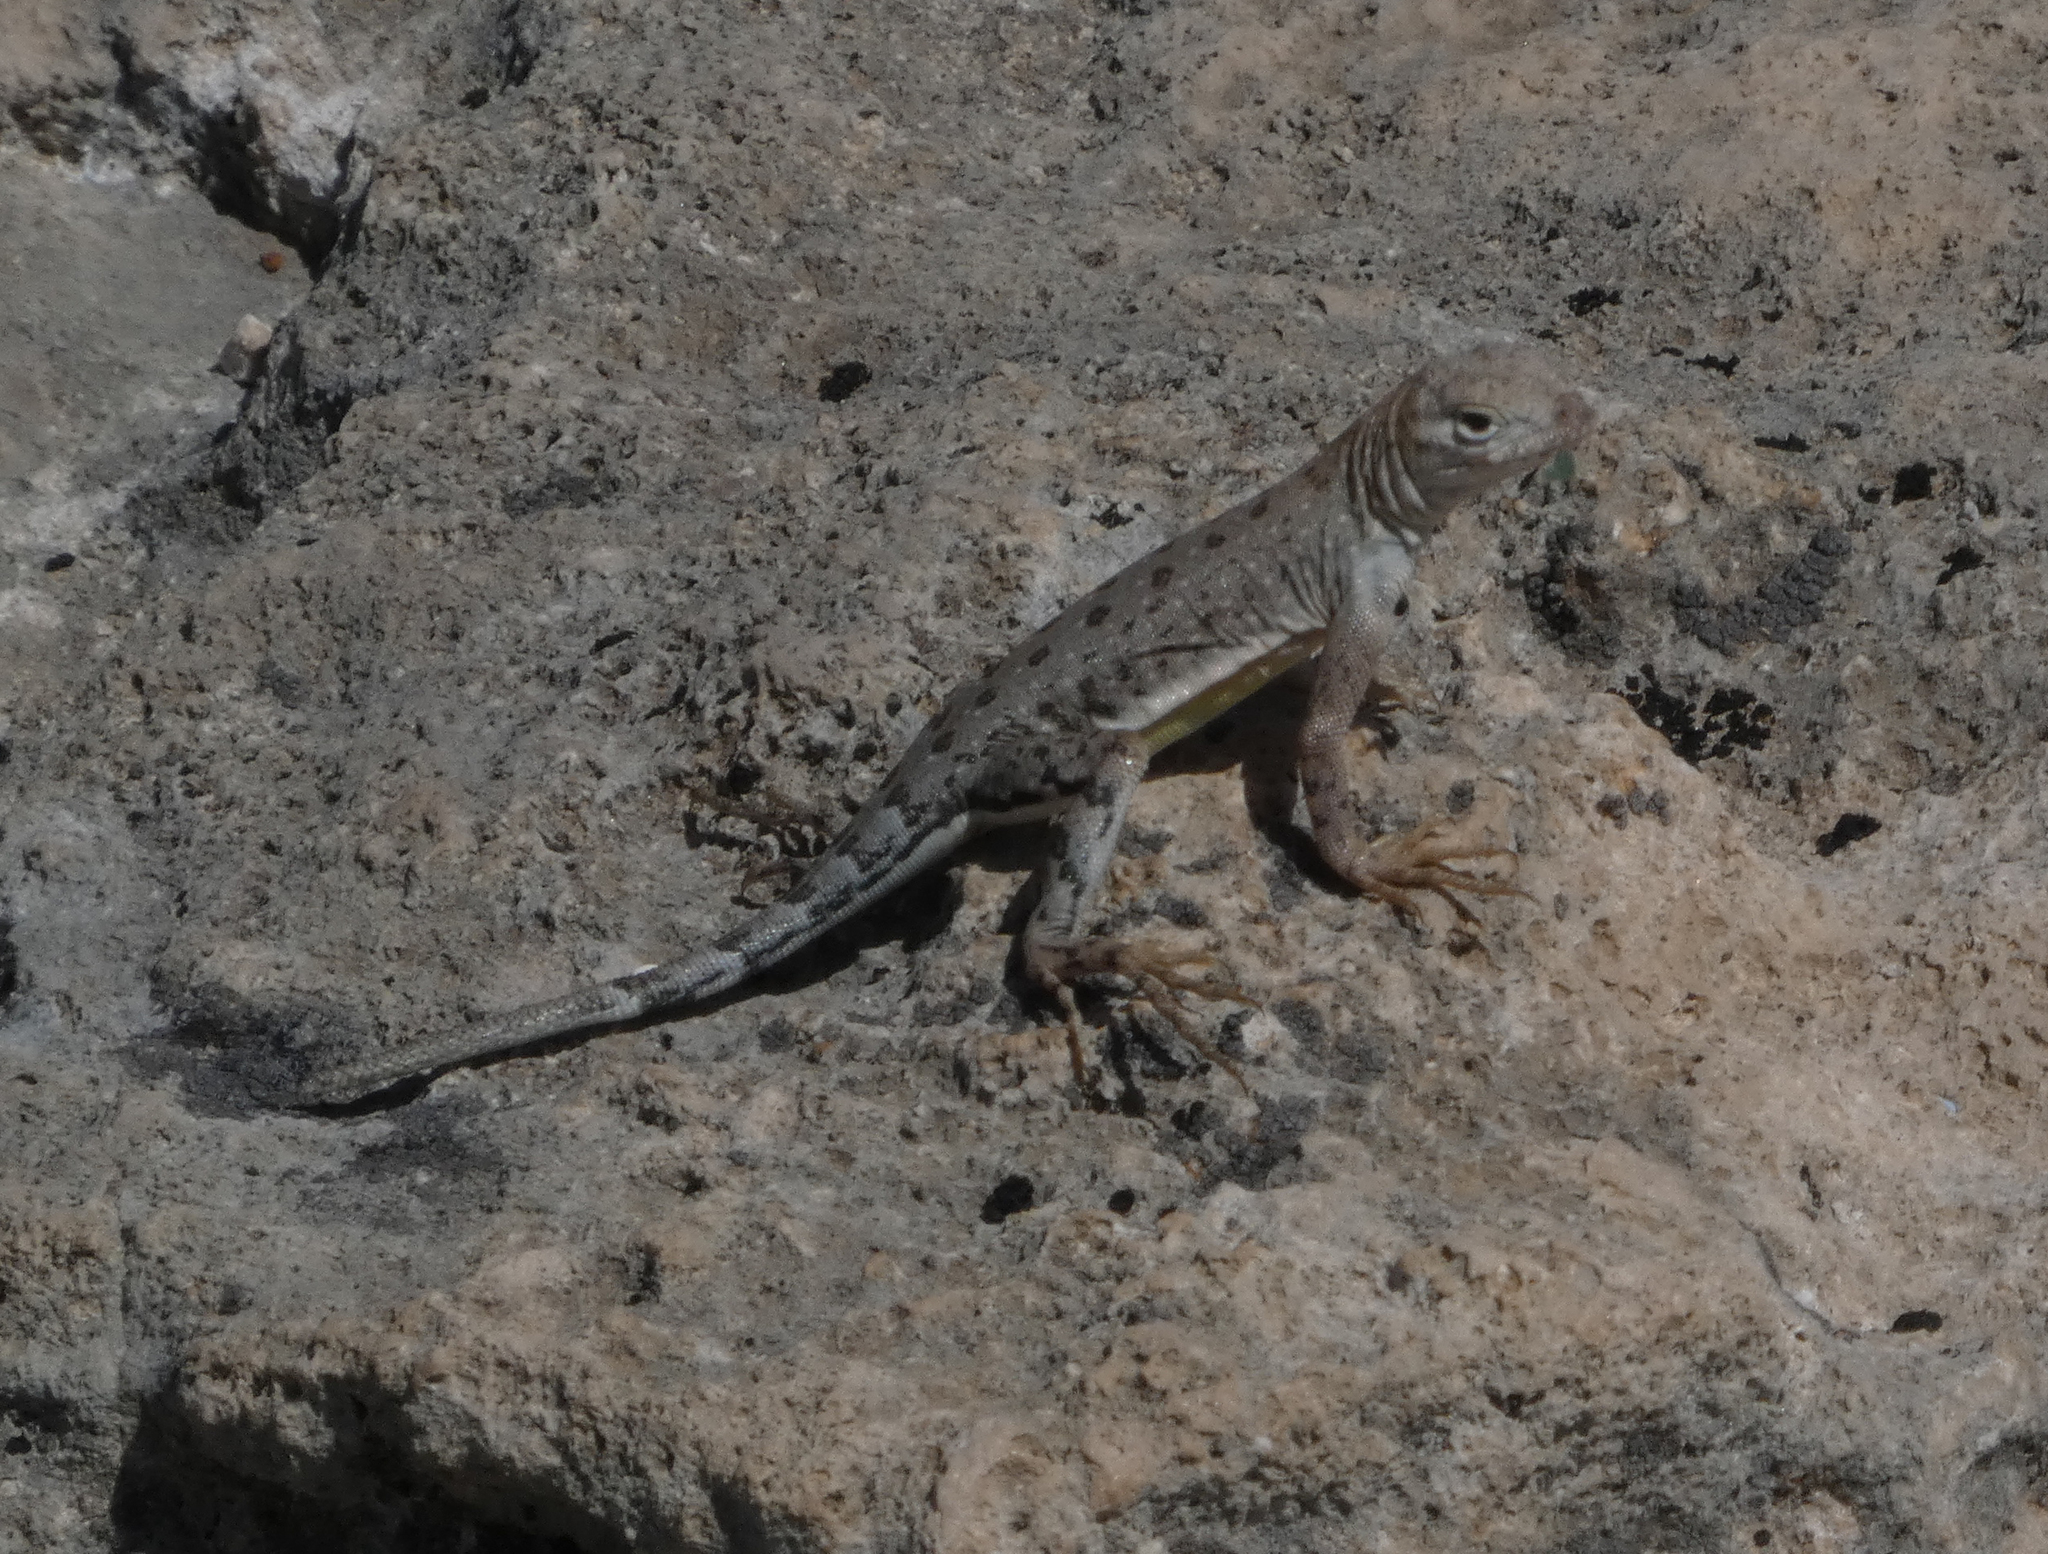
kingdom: Animalia
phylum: Chordata
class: Squamata
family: Phrynosomatidae
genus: Cophosaurus
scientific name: Cophosaurus texanus
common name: Greater earless lizard
